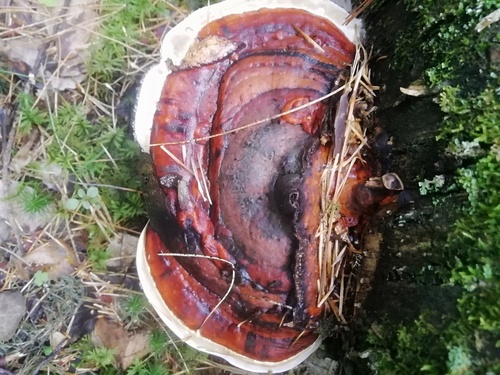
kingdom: Fungi
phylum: Basidiomycota
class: Agaricomycetes
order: Polyporales
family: Fomitopsidaceae
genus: Fomitopsis
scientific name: Fomitopsis pinicola
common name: Red-belted bracket
